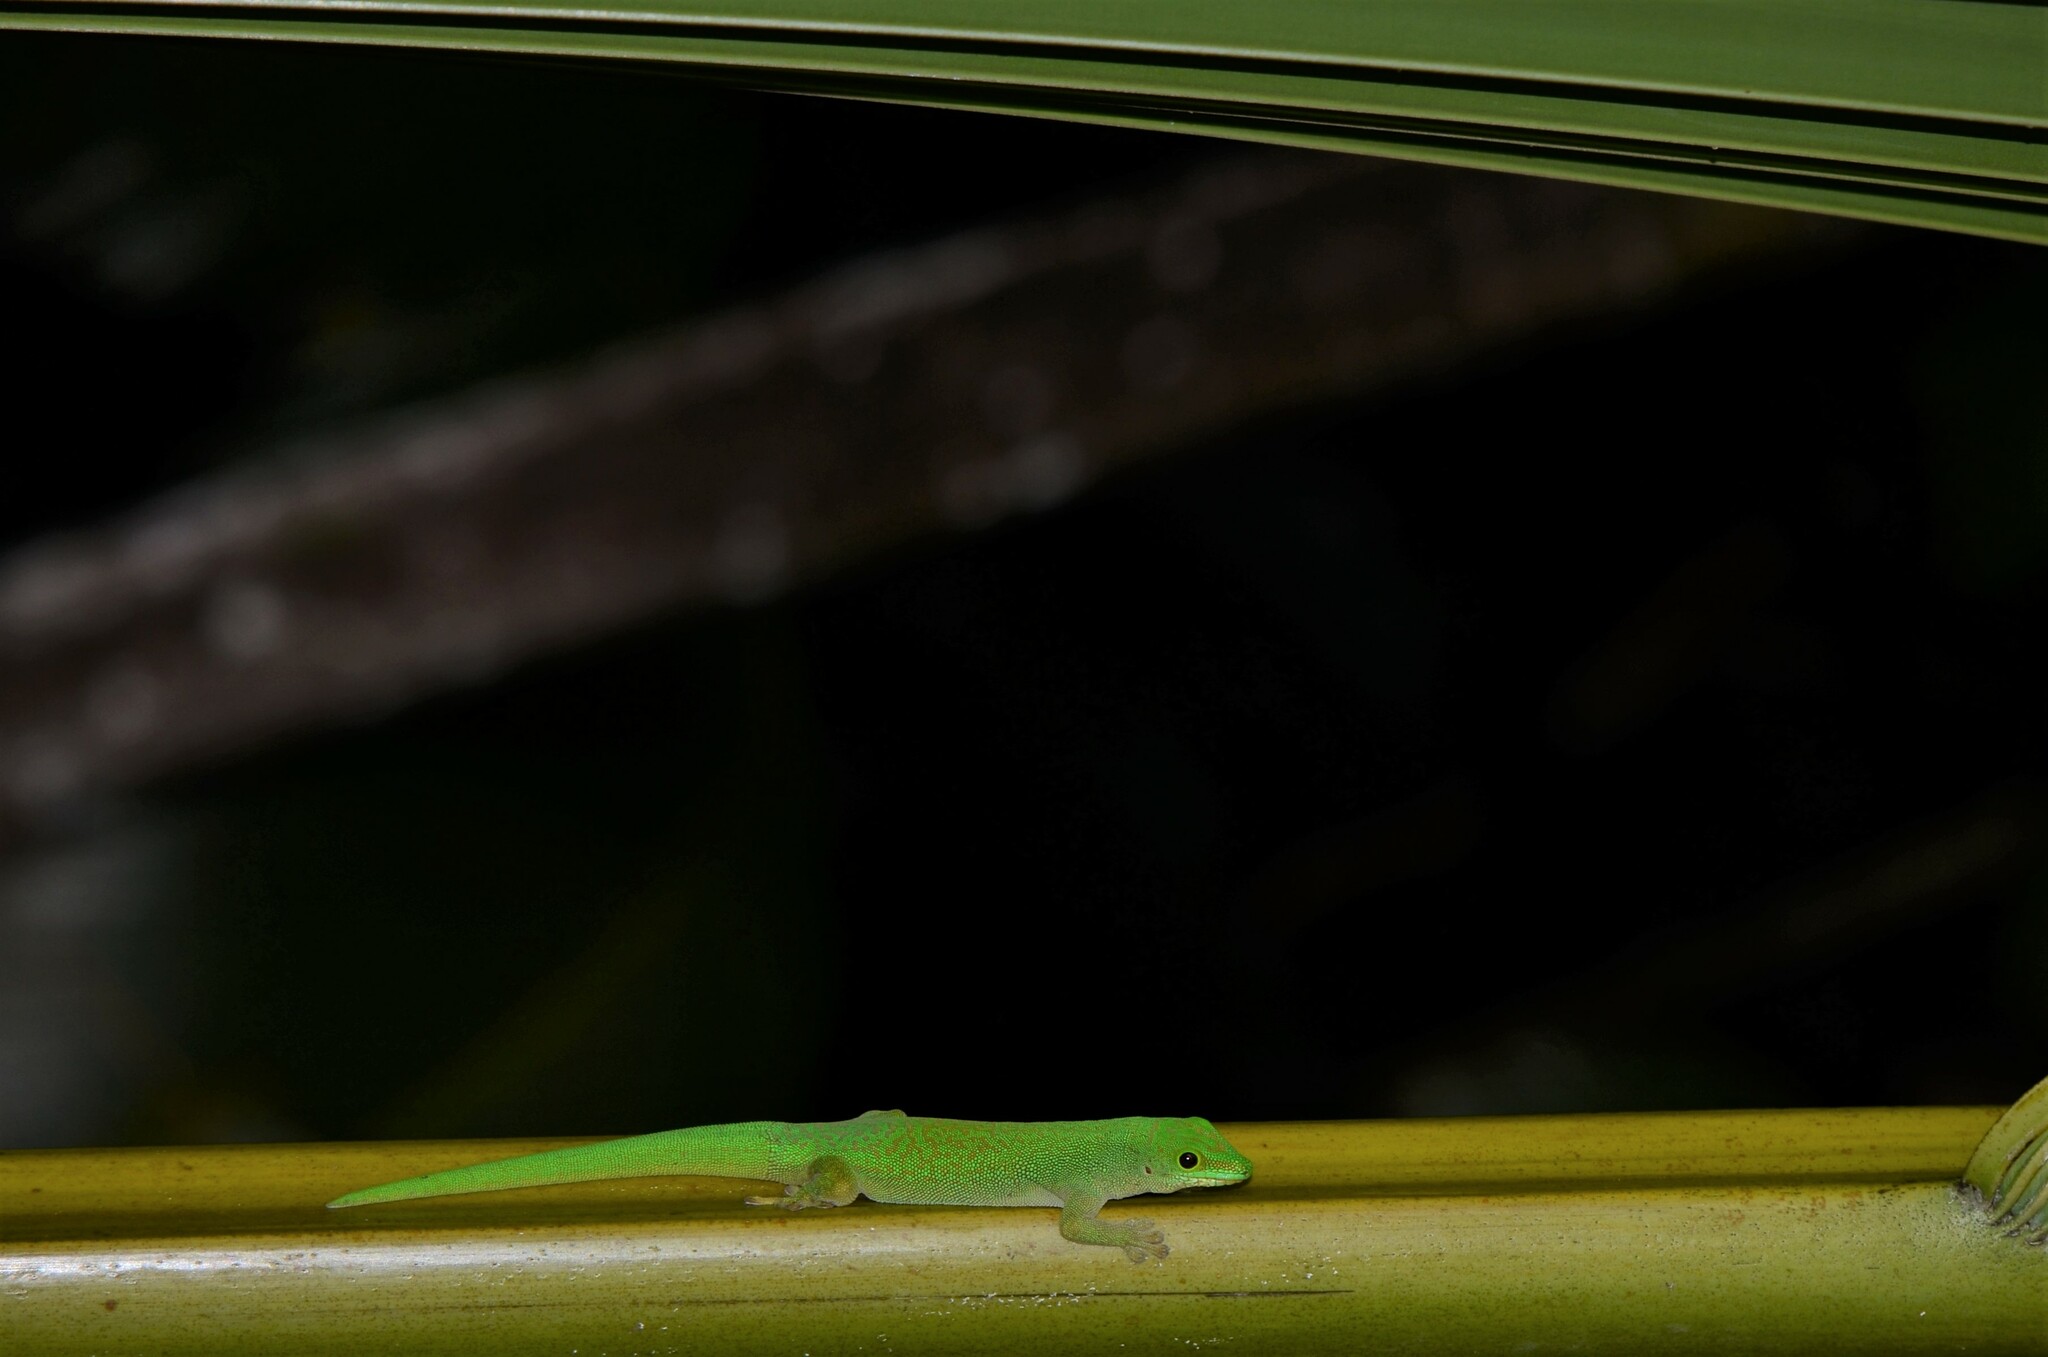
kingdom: Animalia
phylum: Chordata
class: Squamata
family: Gekkonidae
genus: Phelsuma
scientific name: Phelsuma sundbergi
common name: Seychelles giant day gecko
